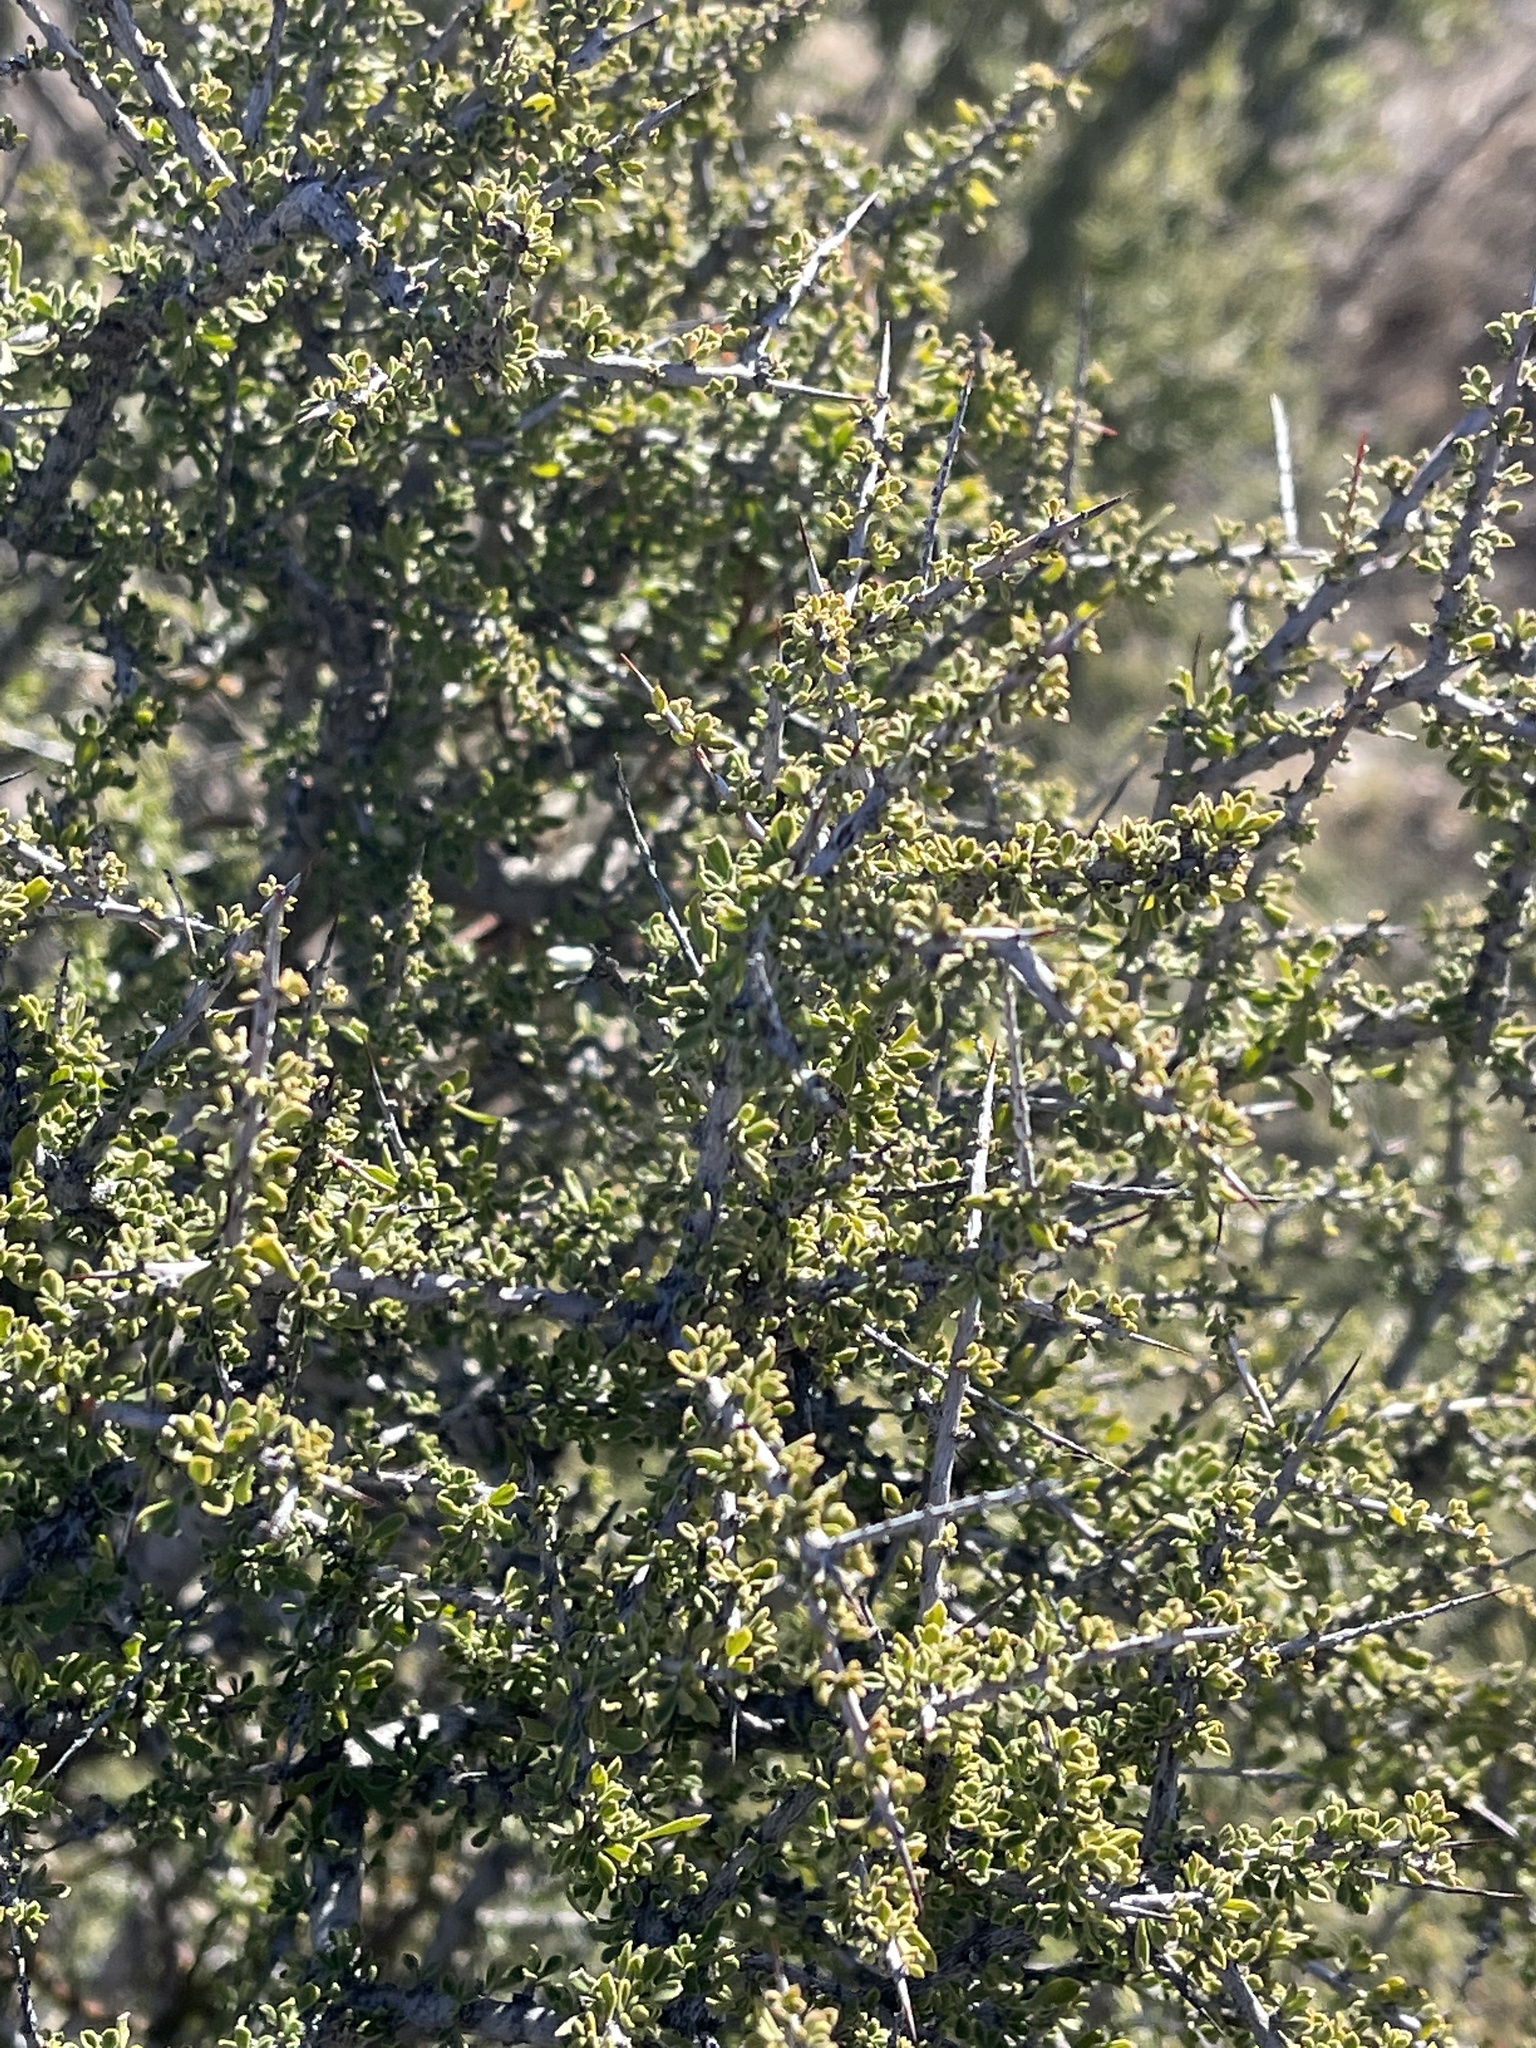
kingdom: Plantae
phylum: Tracheophyta
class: Magnoliopsida
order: Rosales
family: Rhamnaceae
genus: Condalia
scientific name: Condalia warnockii
